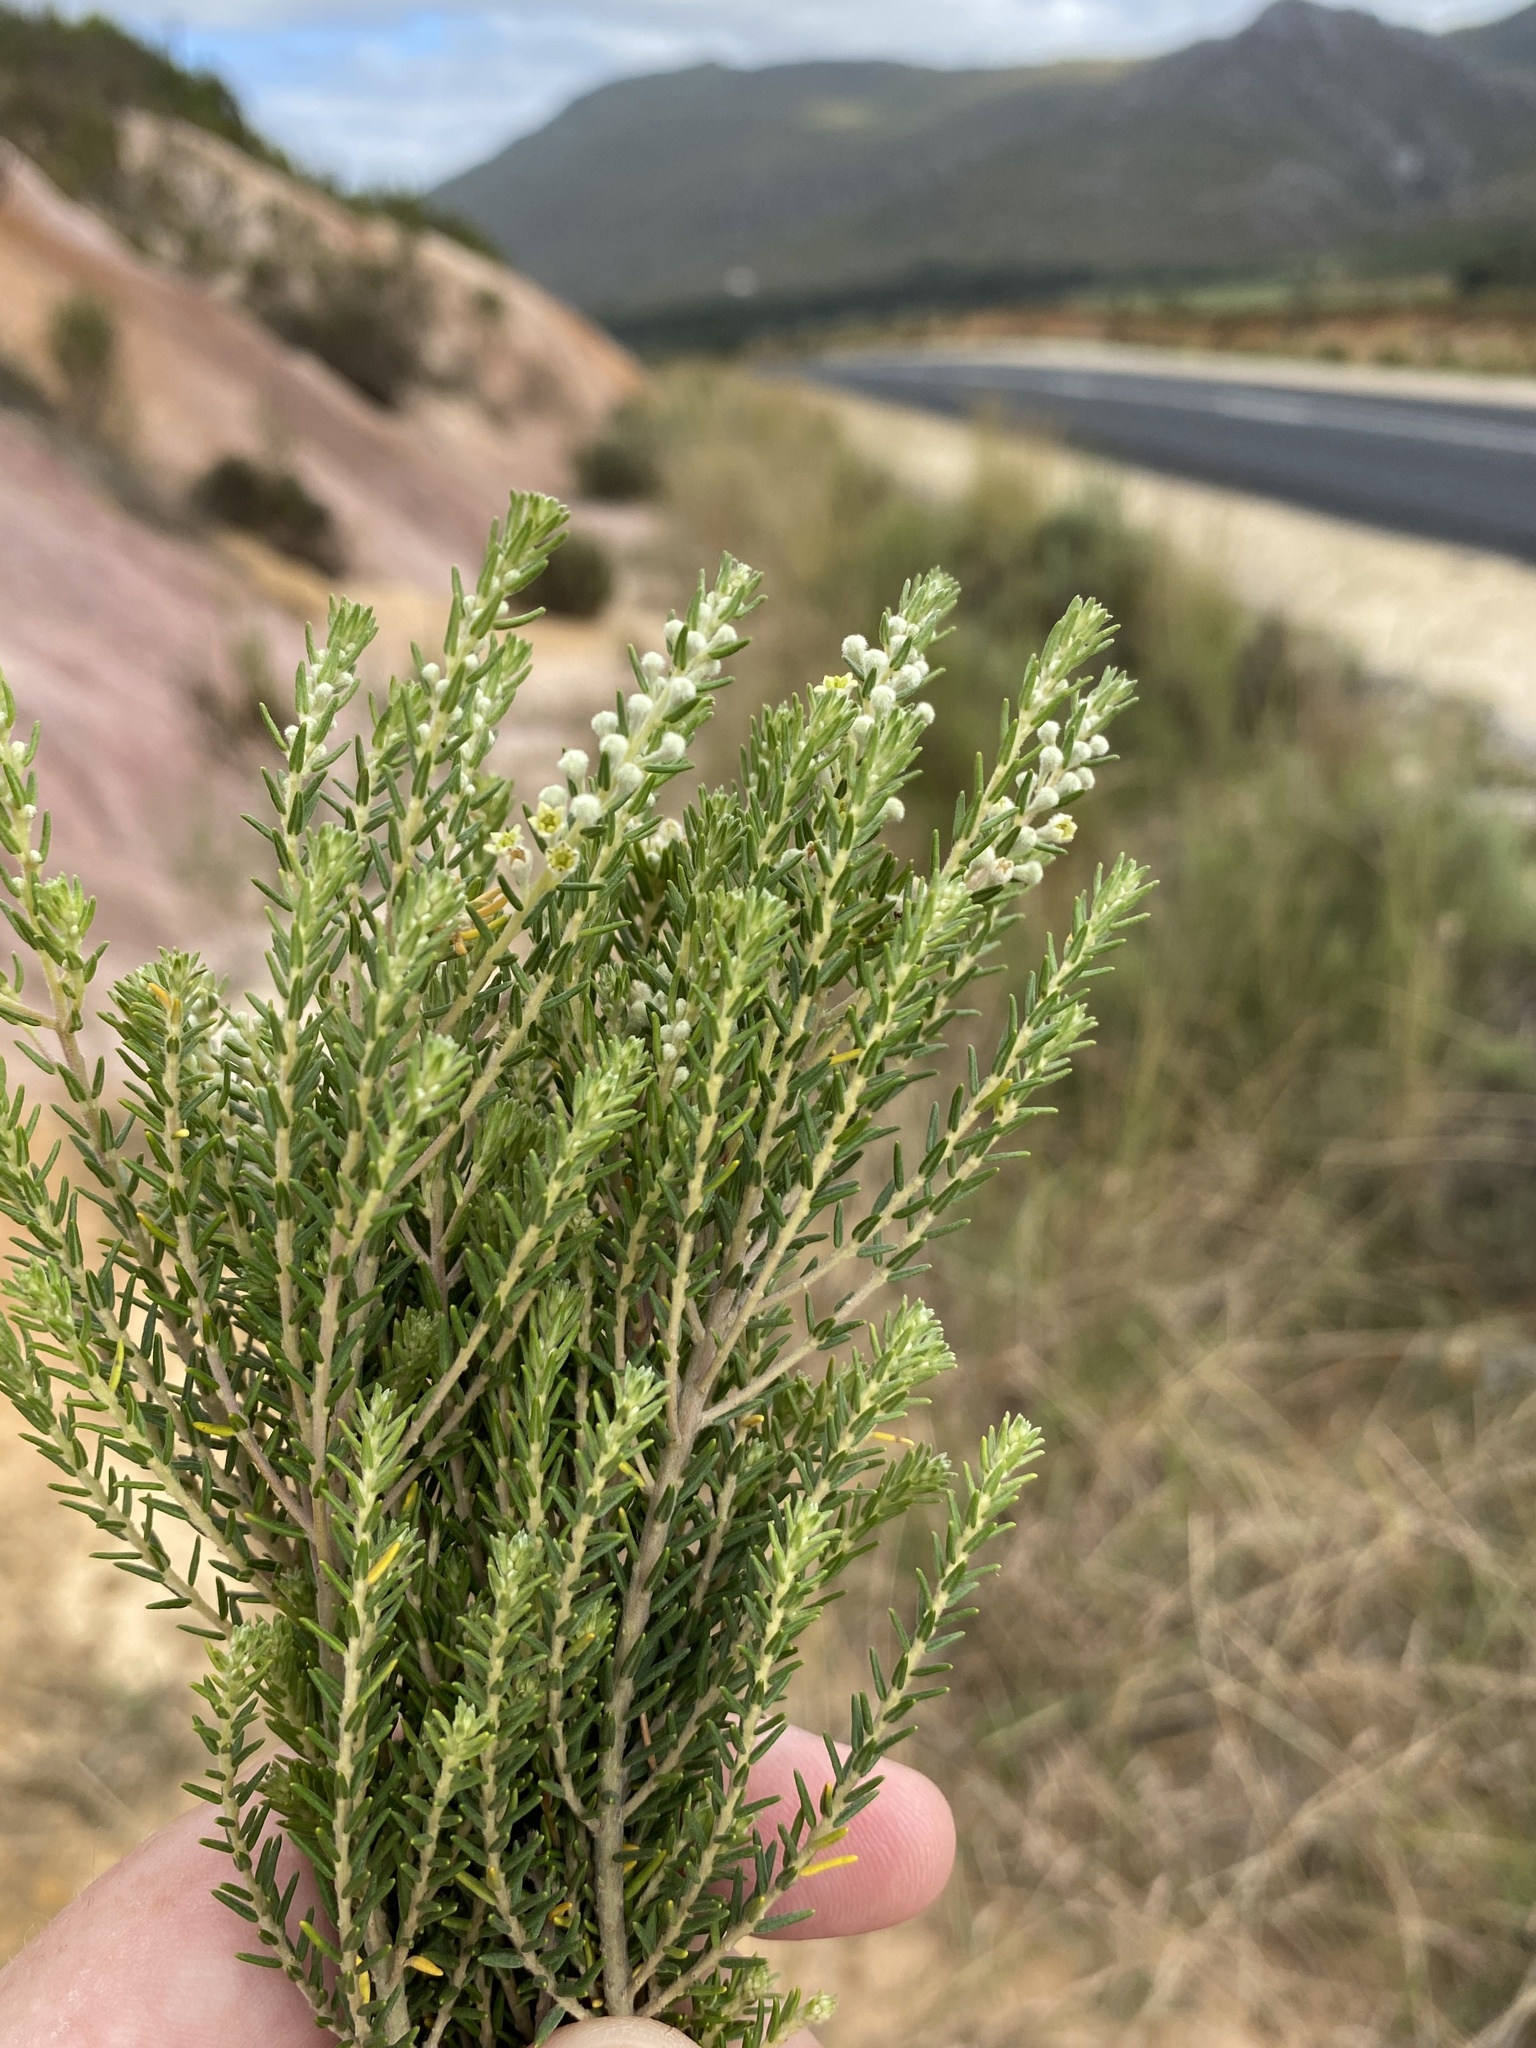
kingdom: Plantae
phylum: Tracheophyta
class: Magnoliopsida
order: Rosales
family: Rhamnaceae
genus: Phylica
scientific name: Phylica elimensis
